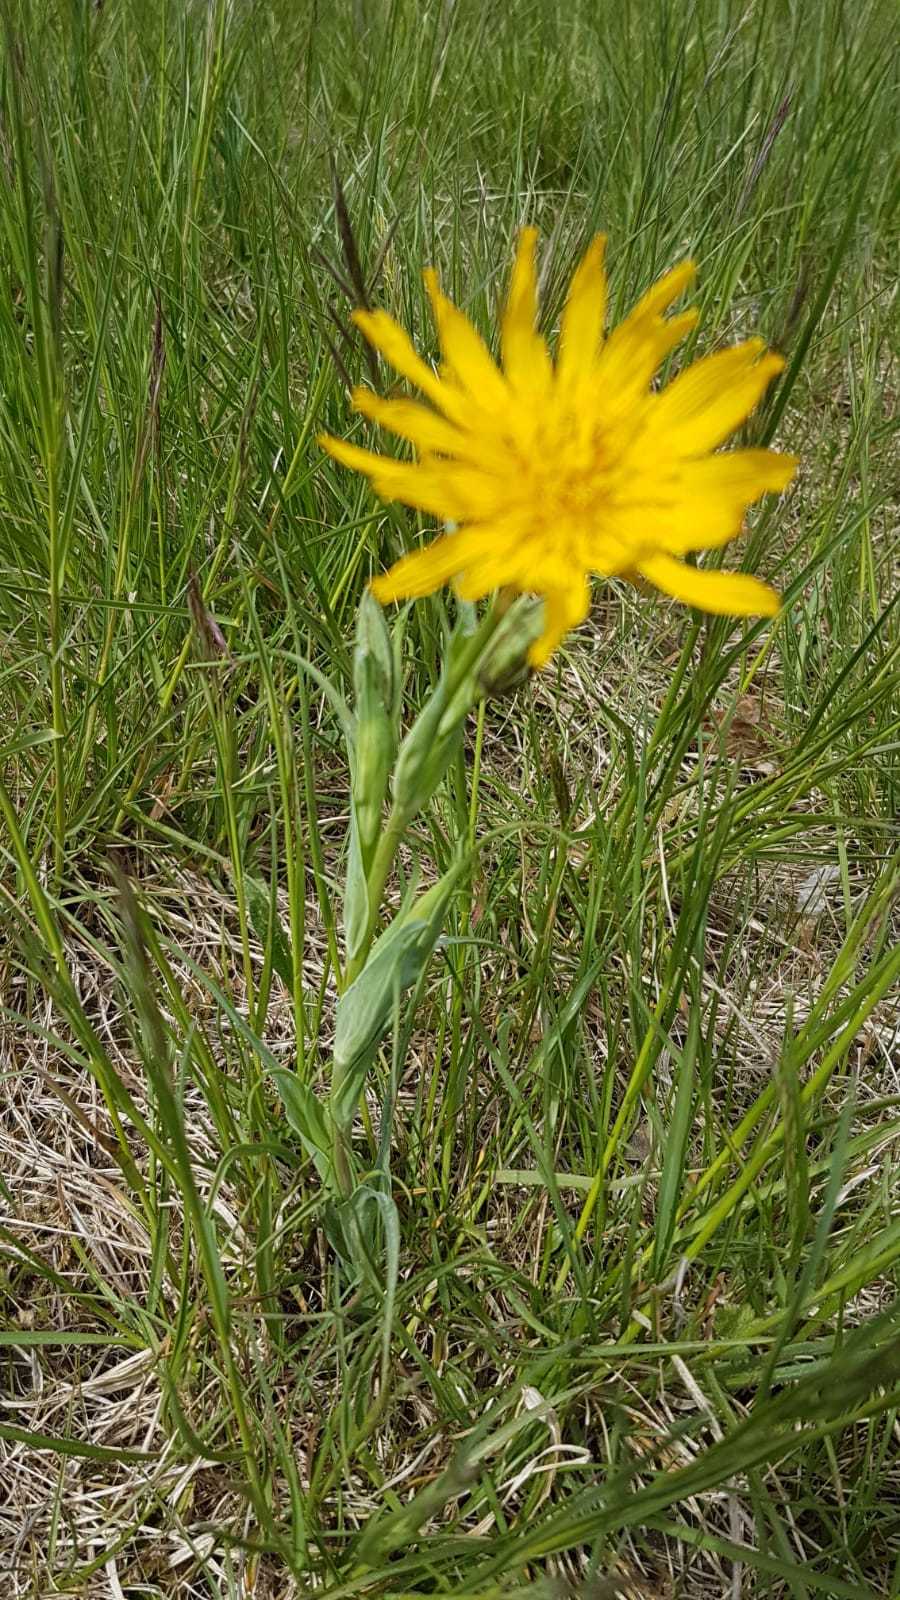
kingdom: Plantae
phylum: Tracheophyta
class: Magnoliopsida
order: Asterales
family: Asteraceae
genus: Tragopogon
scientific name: Tragopogon pratensis
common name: Goat's-beard
